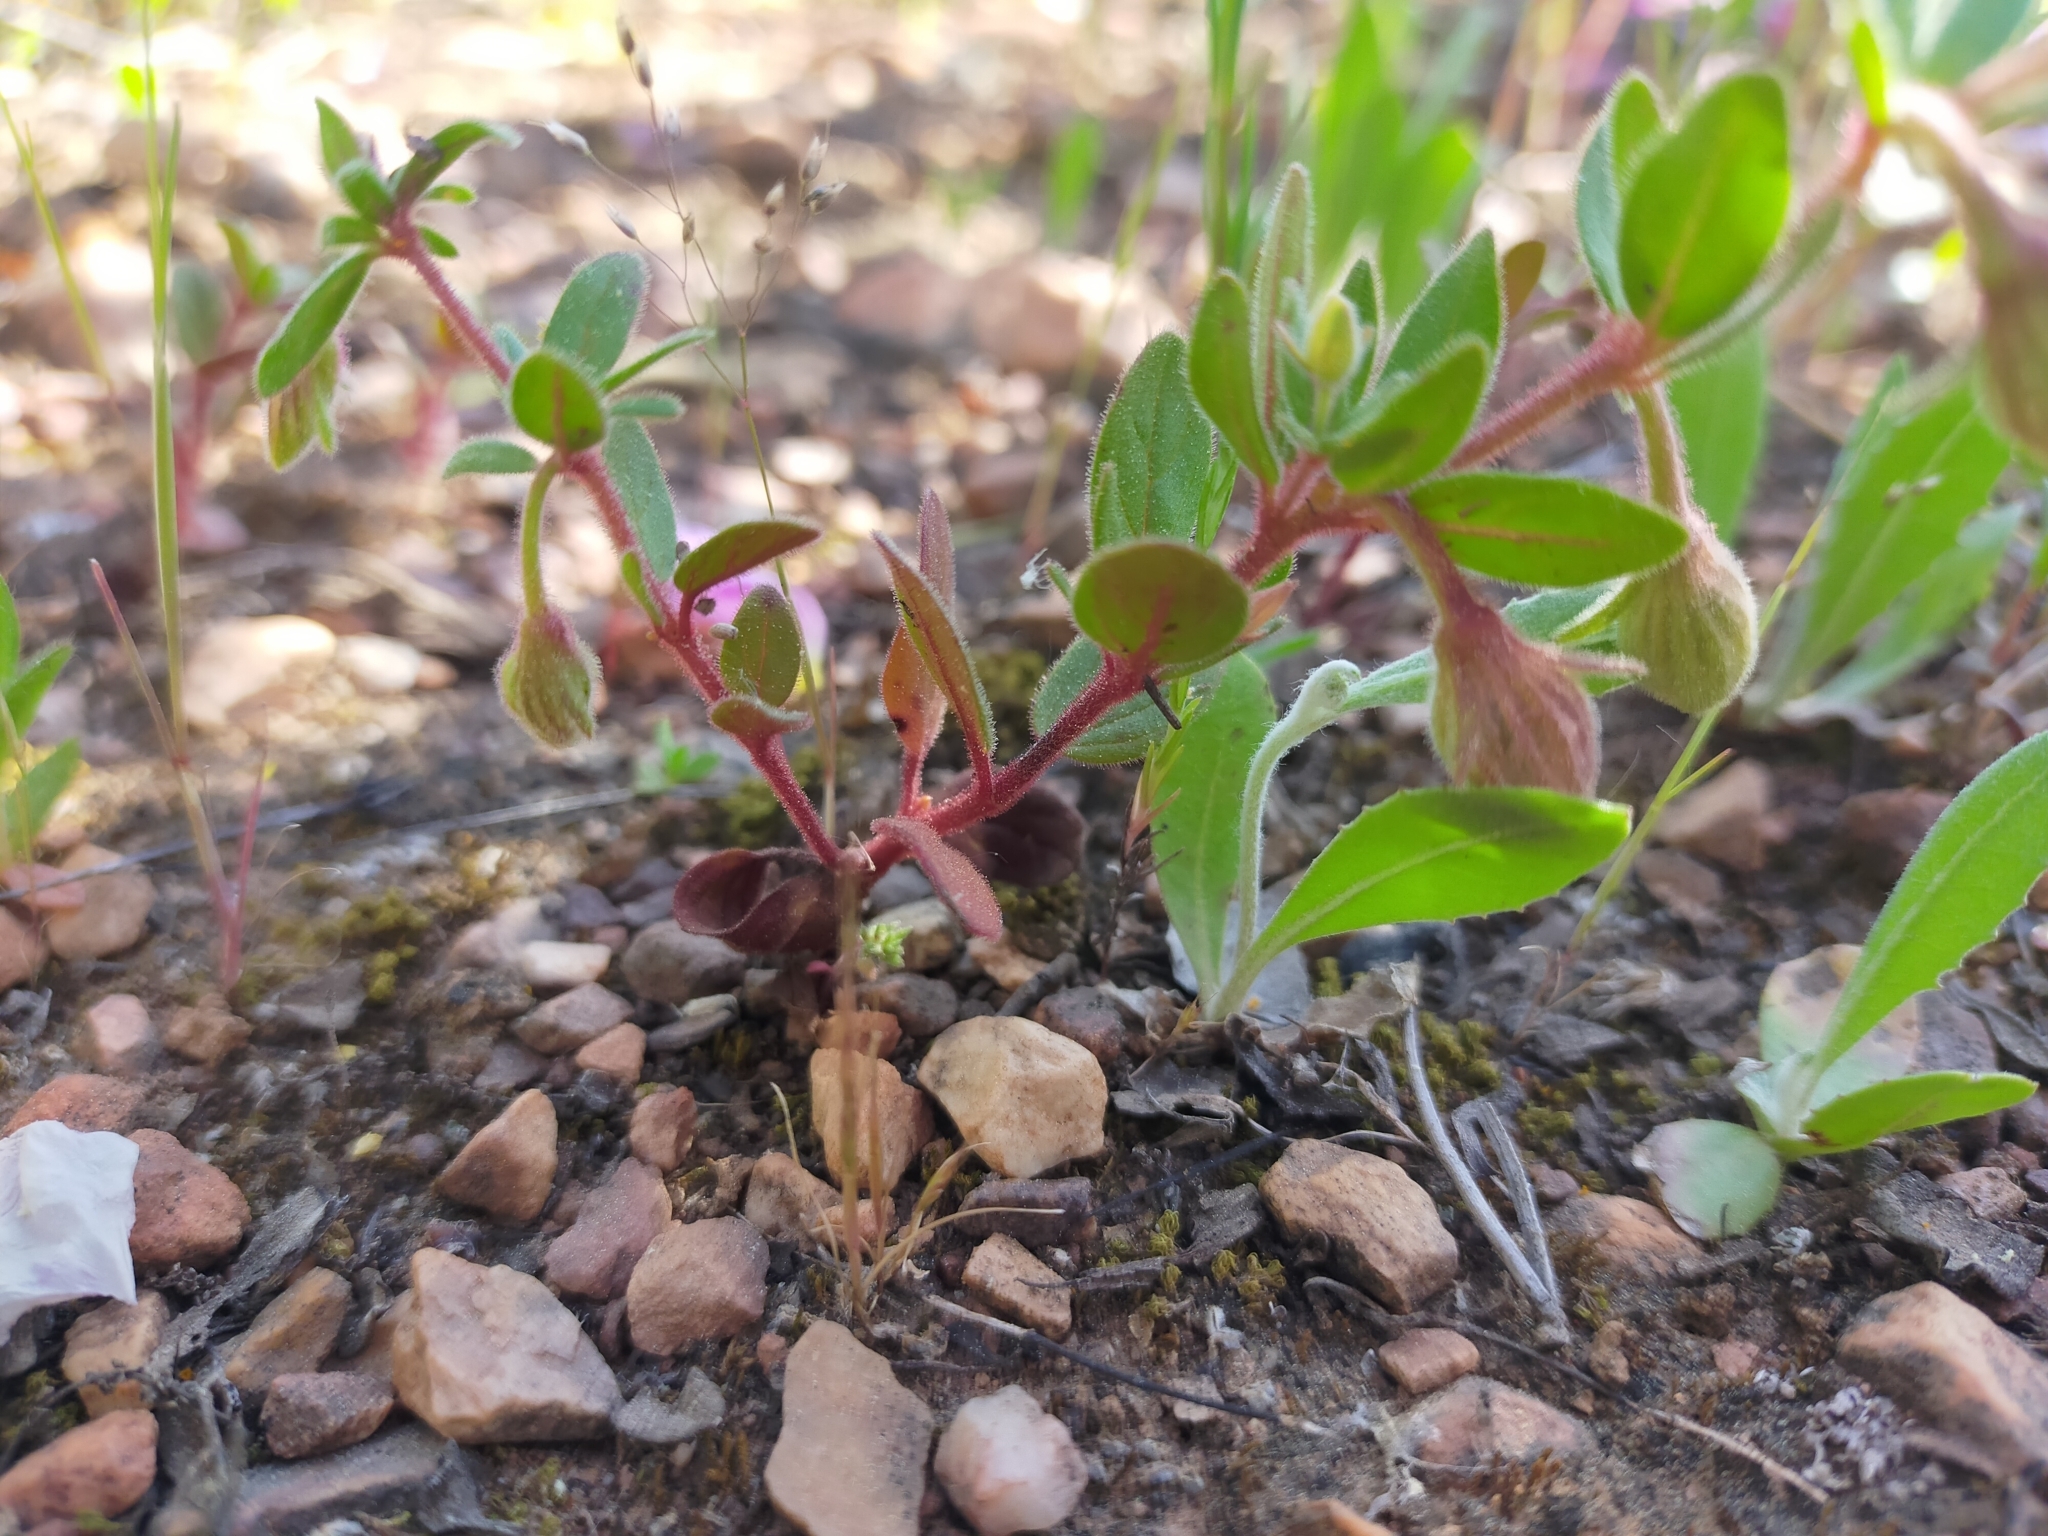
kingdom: Plantae
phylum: Tracheophyta
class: Magnoliopsida
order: Malvales
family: Cistaceae
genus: Helianthemum
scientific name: Helianthemum sanguineum
